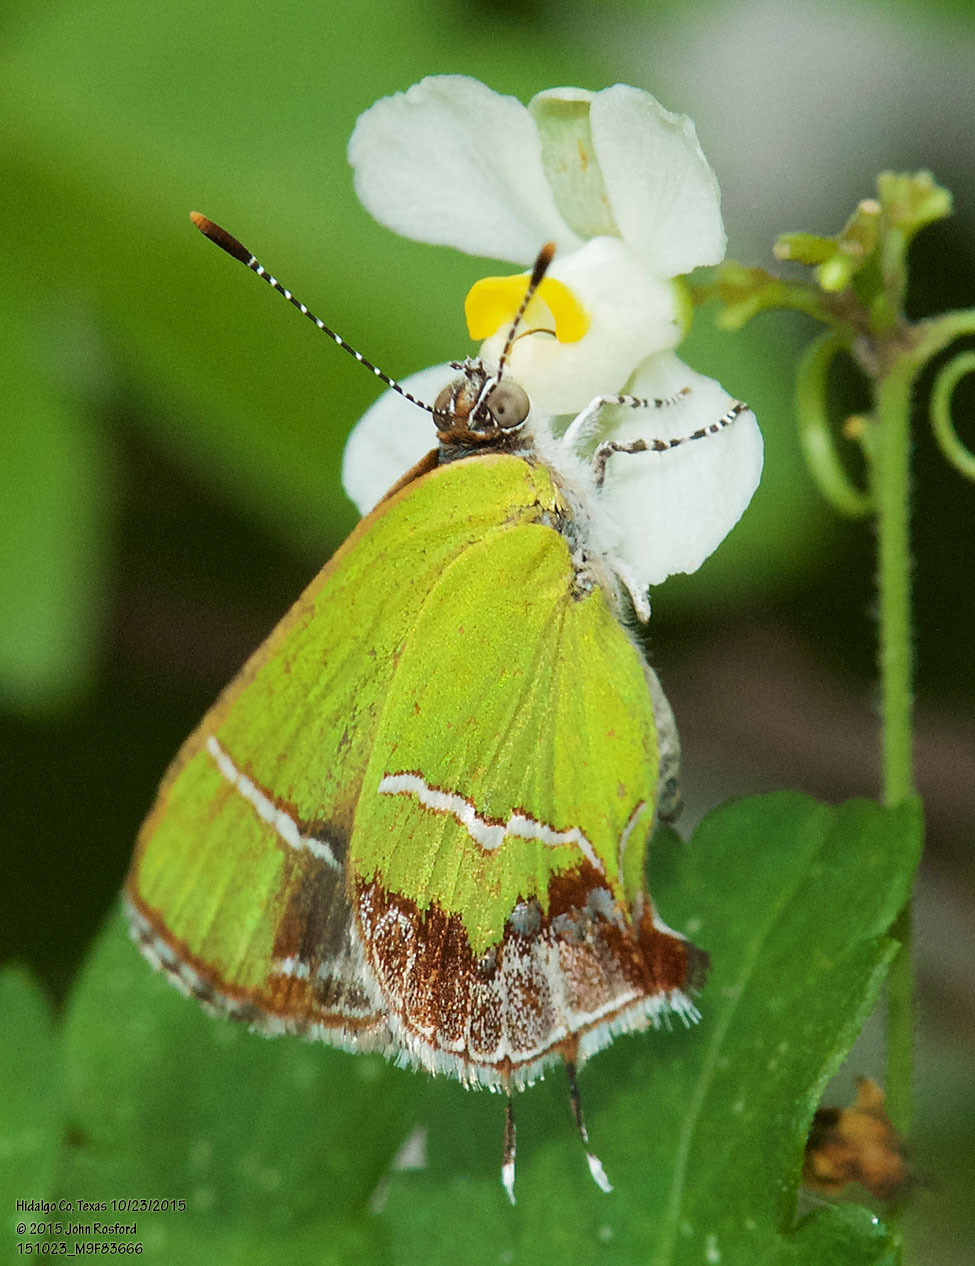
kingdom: Animalia
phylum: Arthropoda
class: Insecta
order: Lepidoptera
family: Lycaenidae
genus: Chlorostrymon
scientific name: Chlorostrymon simaethis
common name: Silver-banded hairstreak
